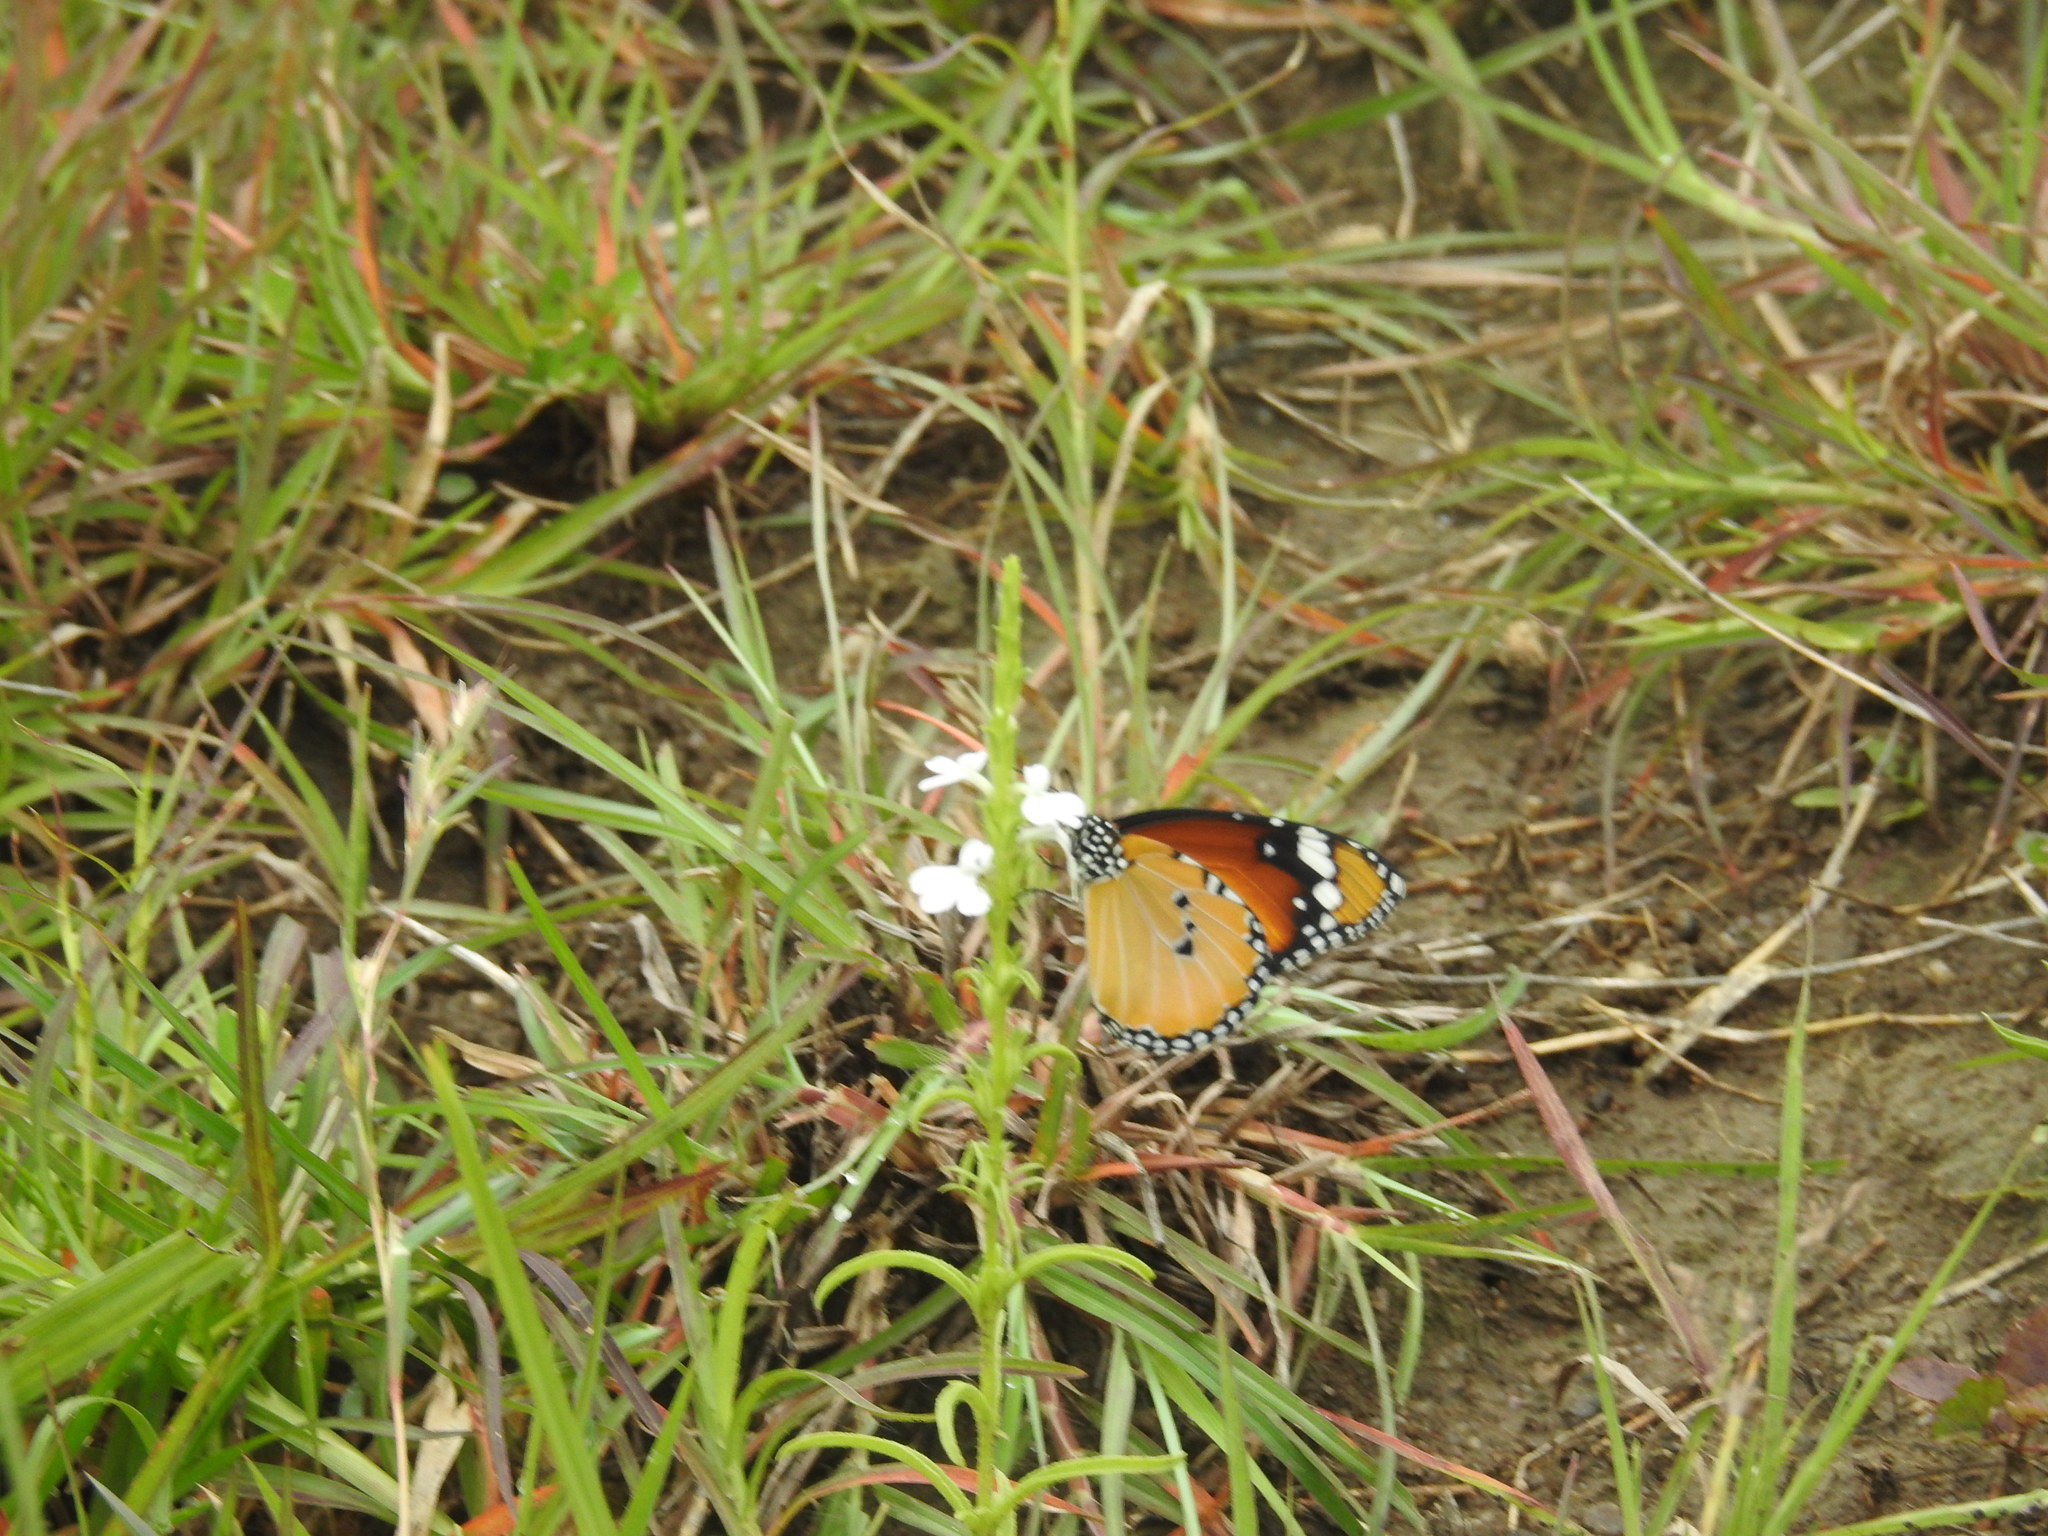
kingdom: Animalia
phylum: Arthropoda
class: Insecta
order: Lepidoptera
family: Nymphalidae
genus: Danaus
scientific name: Danaus chrysippus
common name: Plain tiger
